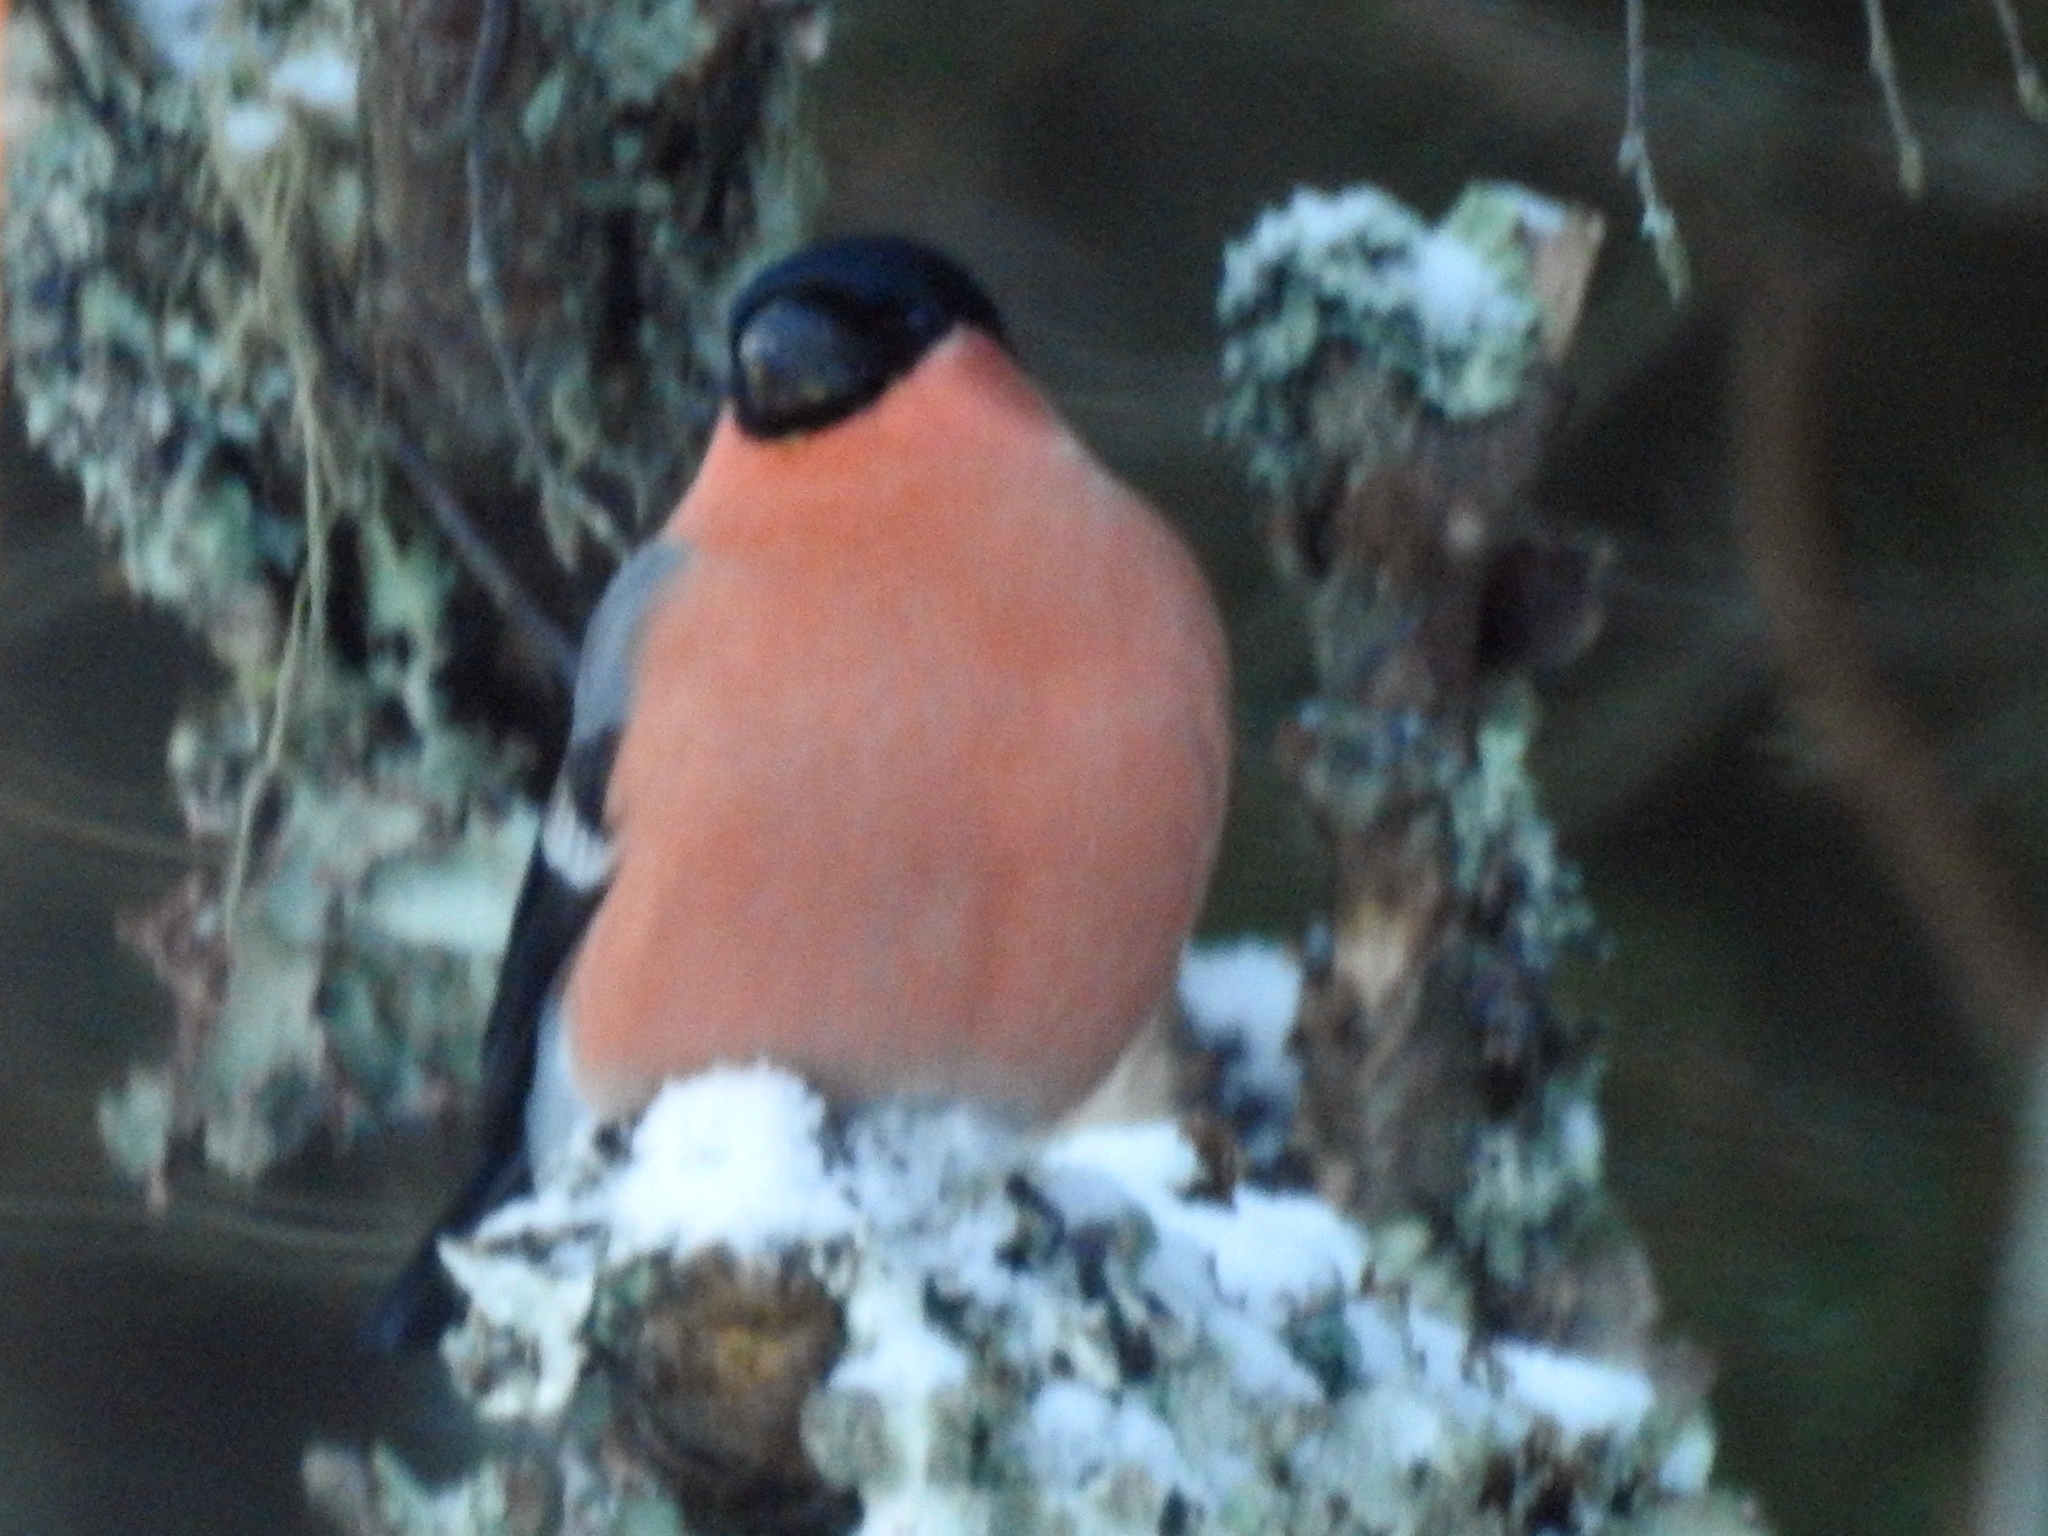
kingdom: Animalia
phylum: Chordata
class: Aves
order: Passeriformes
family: Fringillidae
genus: Pyrrhula
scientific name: Pyrrhula pyrrhula
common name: Eurasian bullfinch
